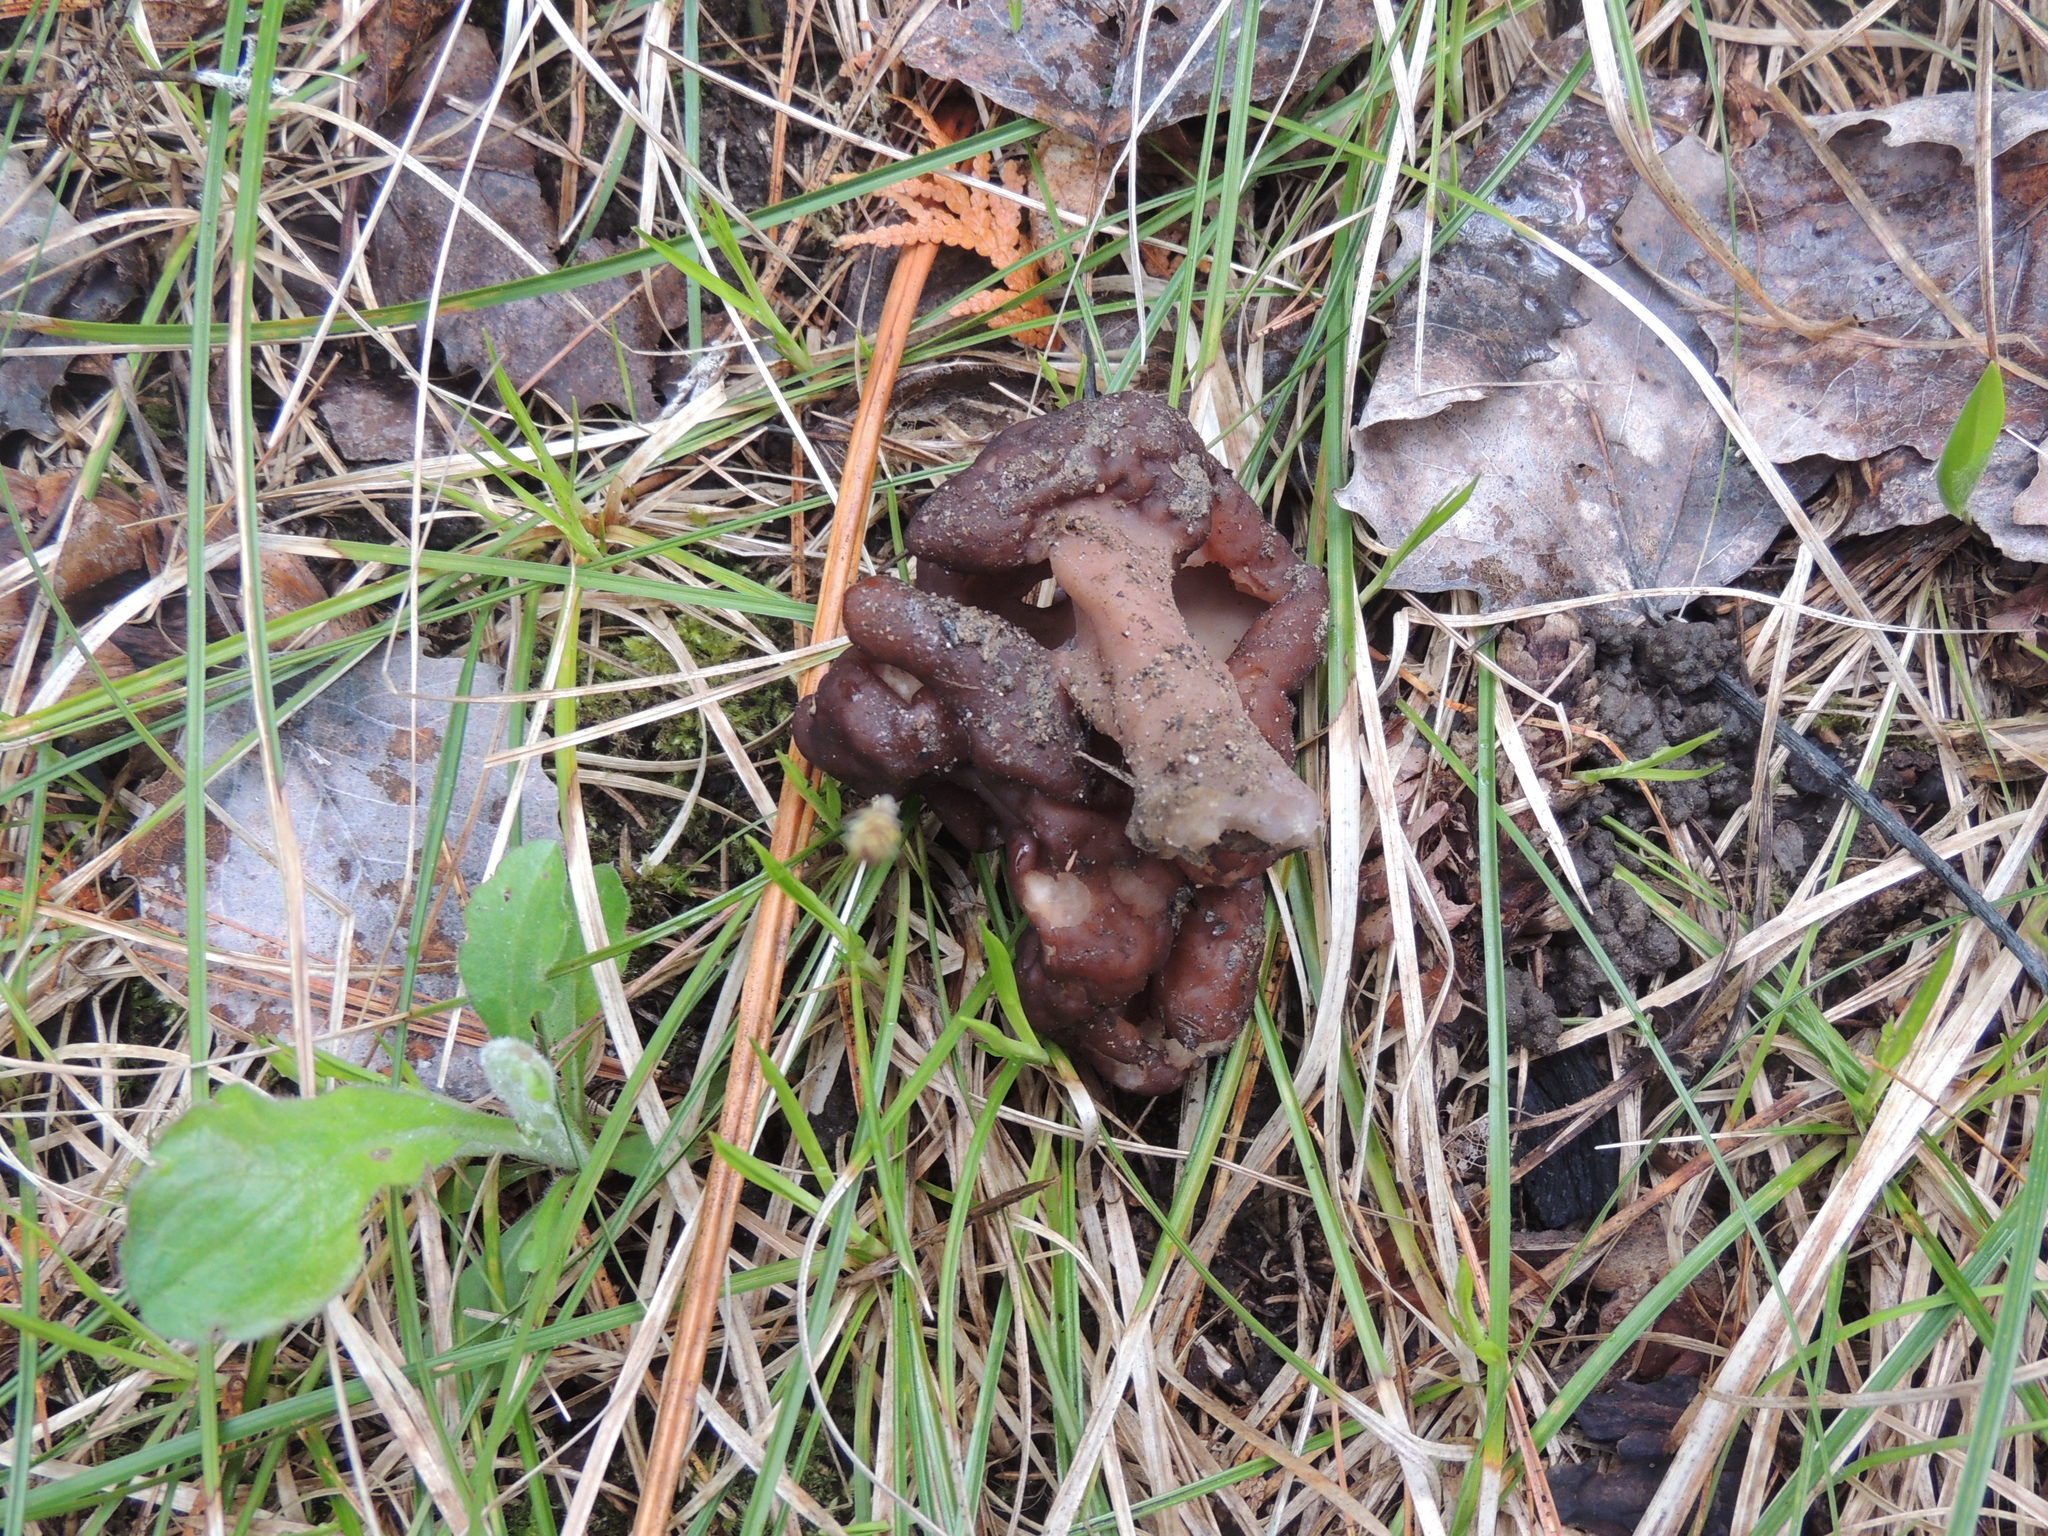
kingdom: Fungi
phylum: Ascomycota
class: Pezizomycetes
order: Pezizales
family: Discinaceae
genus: Gyromitra
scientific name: Gyromitra esculenta
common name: False morel
